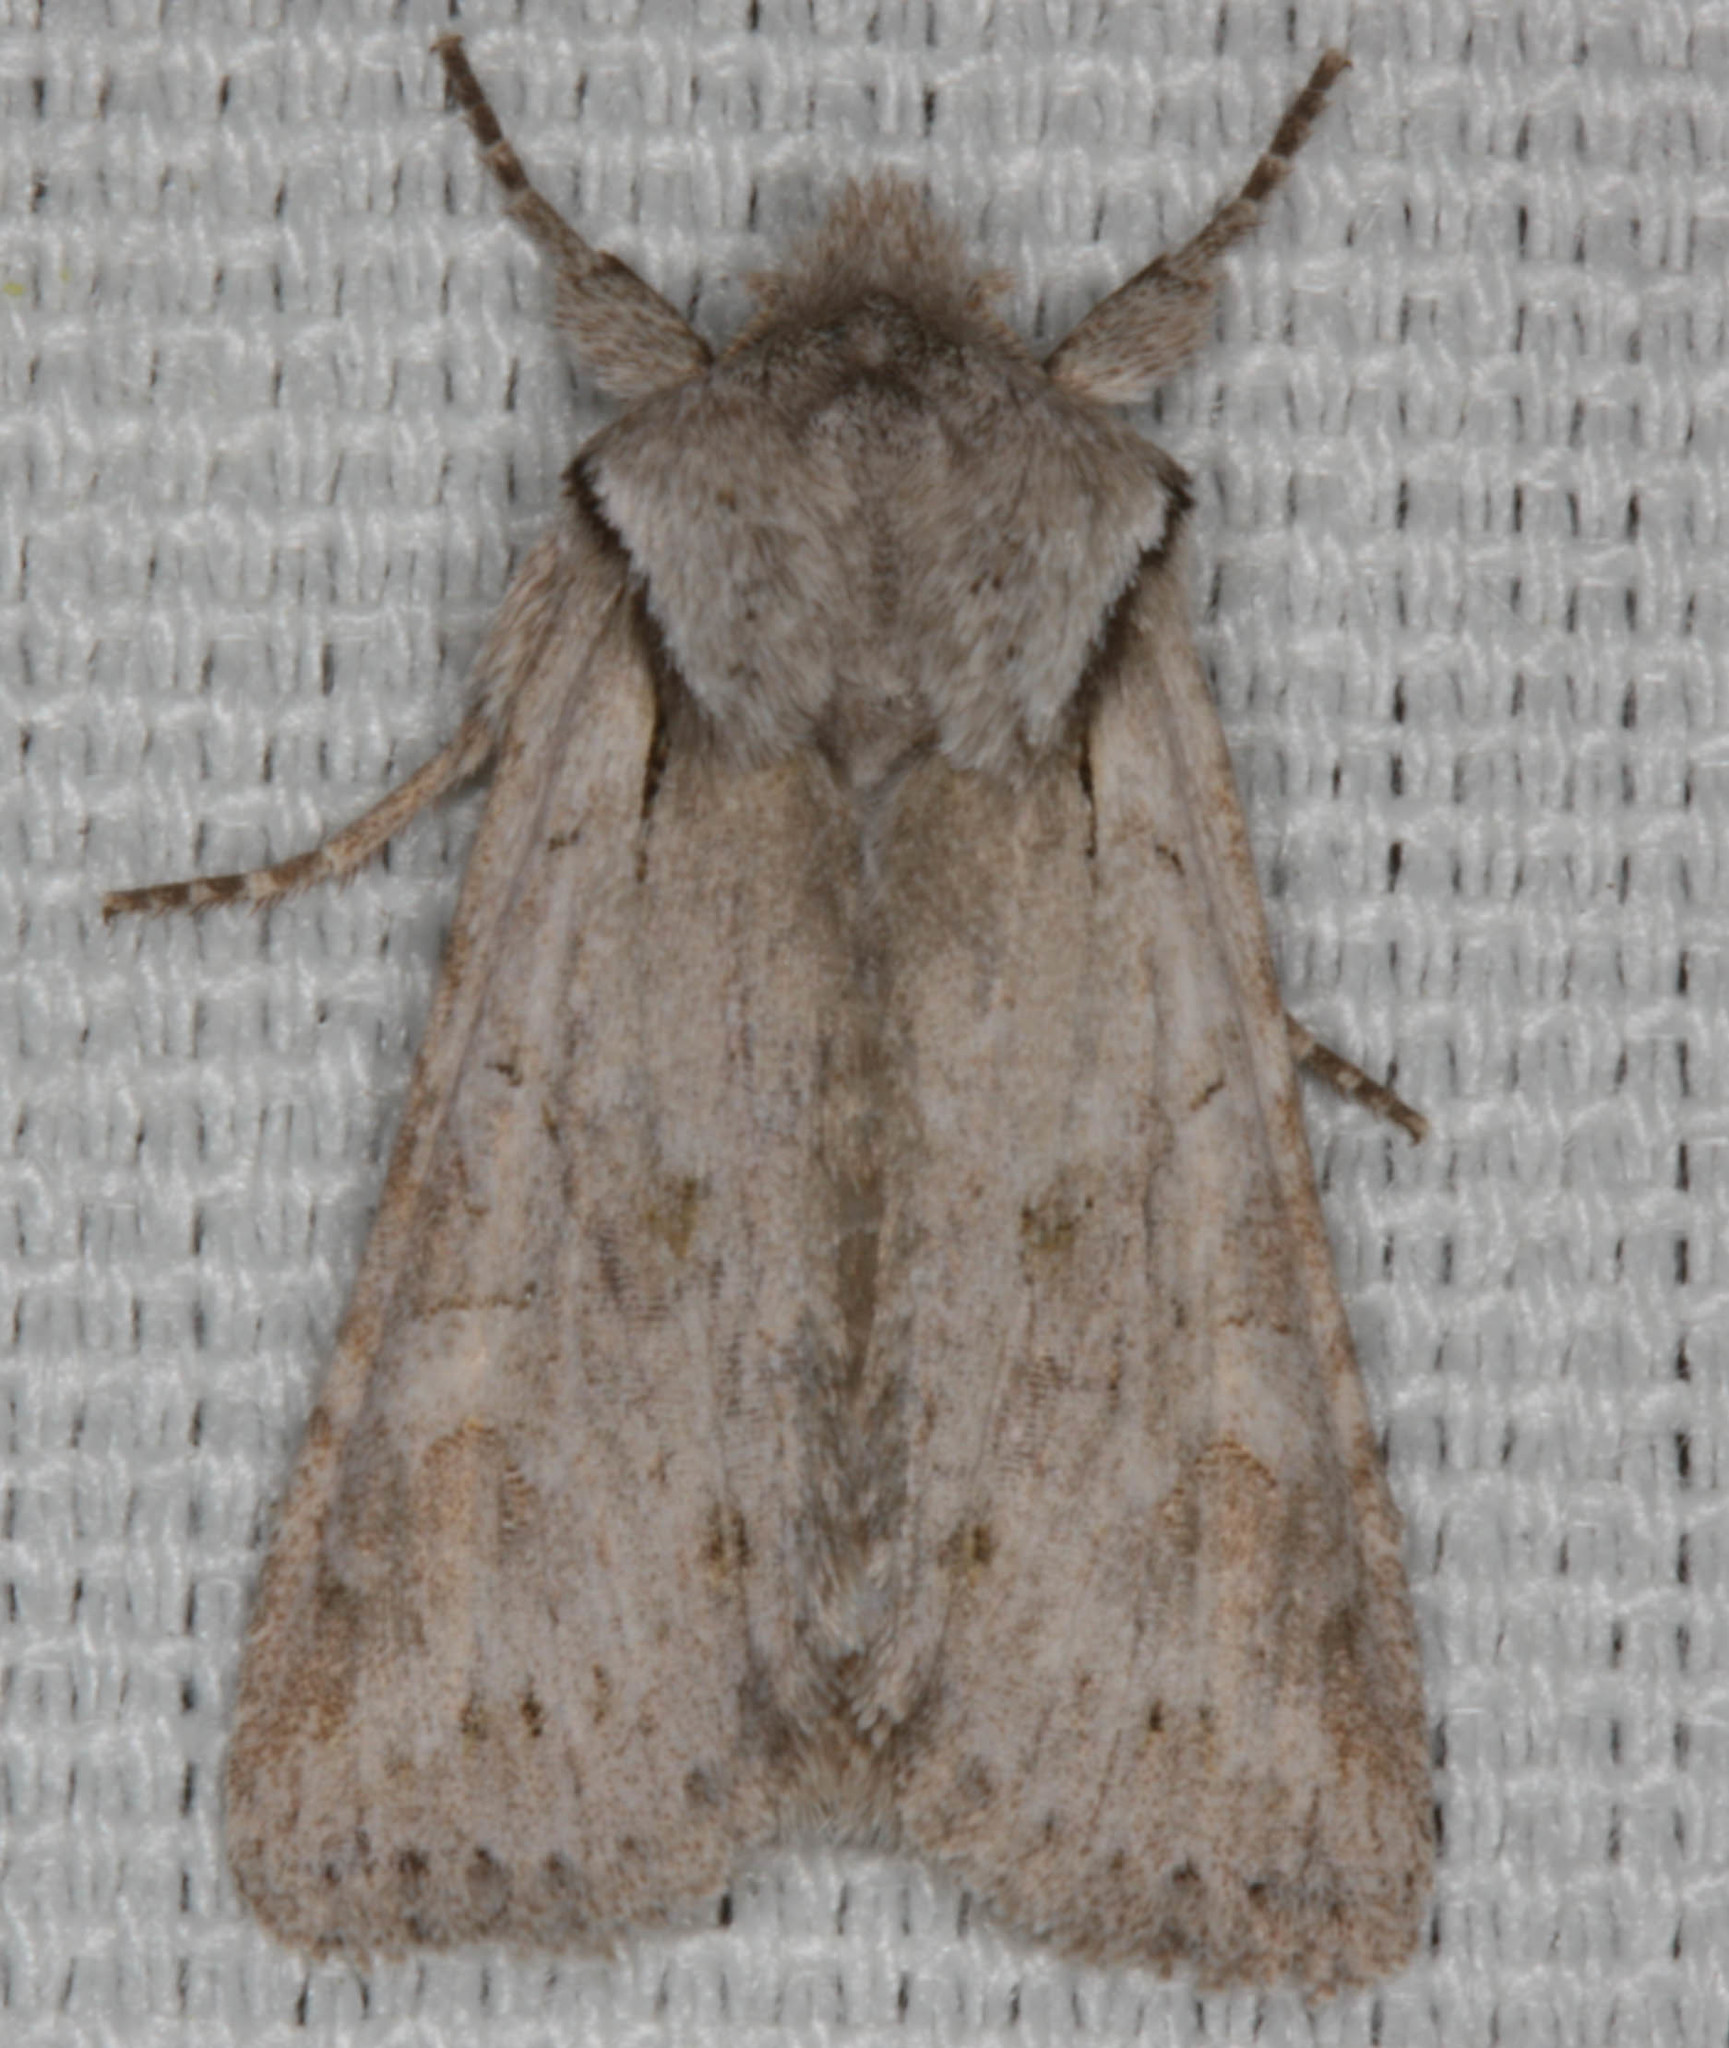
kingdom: Animalia
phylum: Arthropoda
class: Insecta
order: Lepidoptera
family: Noctuidae
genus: Lacinipolia
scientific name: Lacinipolia patalis
